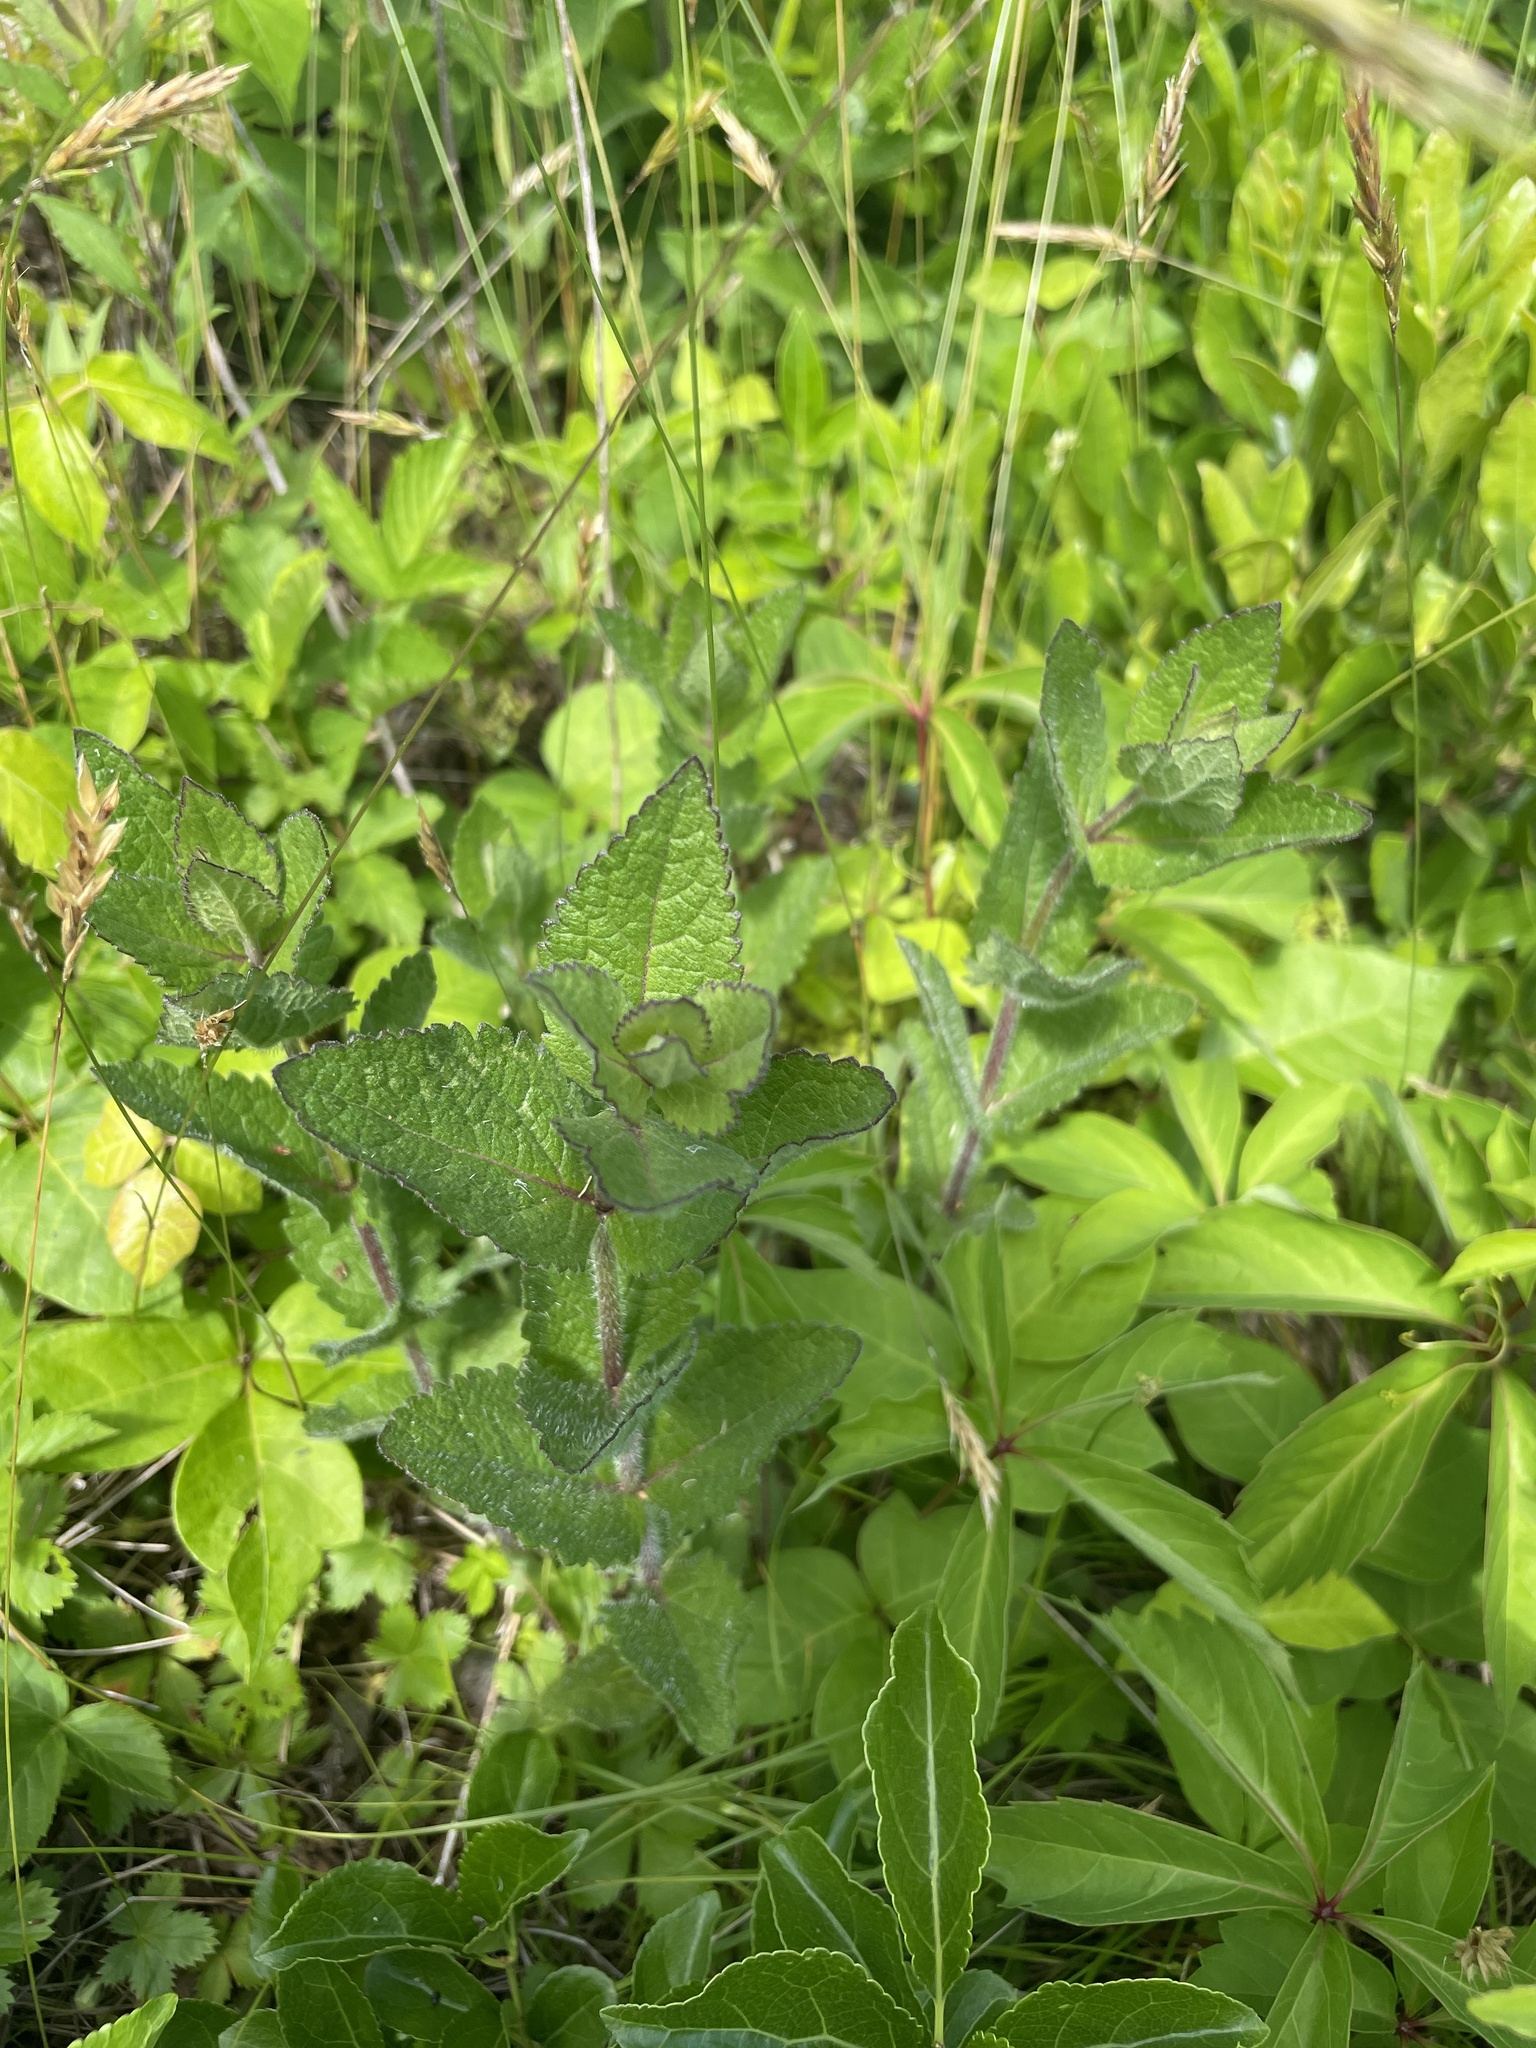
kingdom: Plantae
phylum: Tracheophyta
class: Magnoliopsida
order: Asterales
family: Asteraceae
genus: Eupatorium
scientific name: Eupatorium pilosum
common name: Rough boneset
